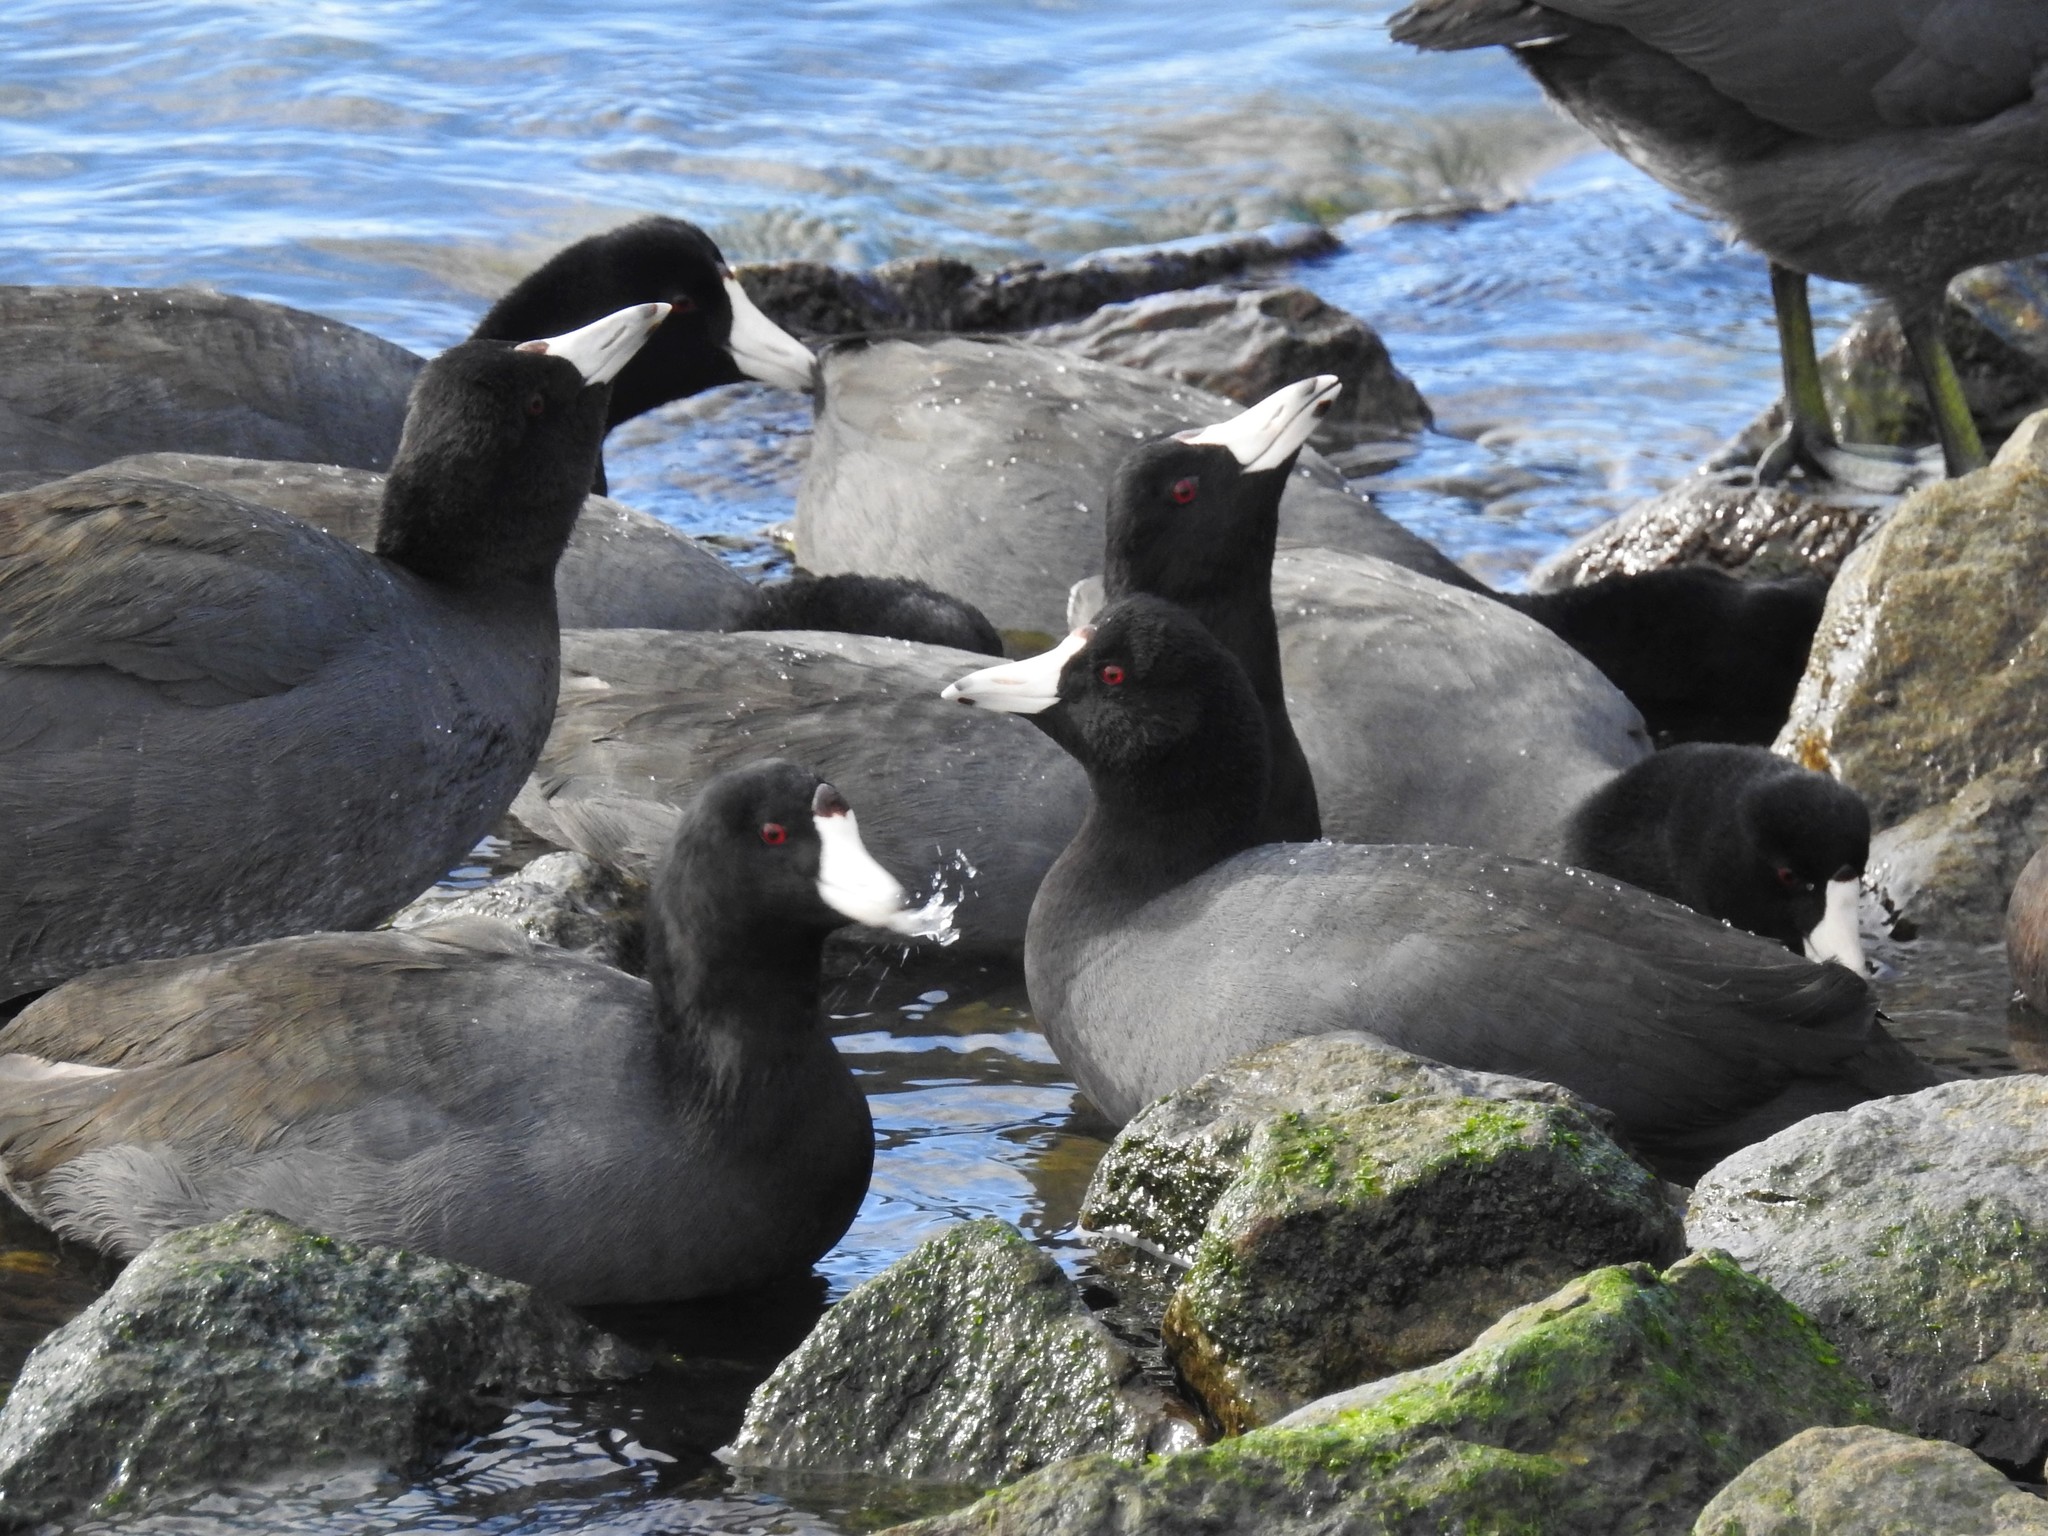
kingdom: Animalia
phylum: Chordata
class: Aves
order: Gruiformes
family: Rallidae
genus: Fulica
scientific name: Fulica americana
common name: American coot
